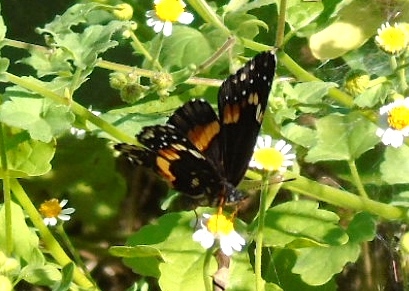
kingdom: Animalia
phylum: Arthropoda
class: Insecta
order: Lepidoptera
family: Nymphalidae
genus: Chlosyne
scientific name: Chlosyne lacinia
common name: Bordered patch
